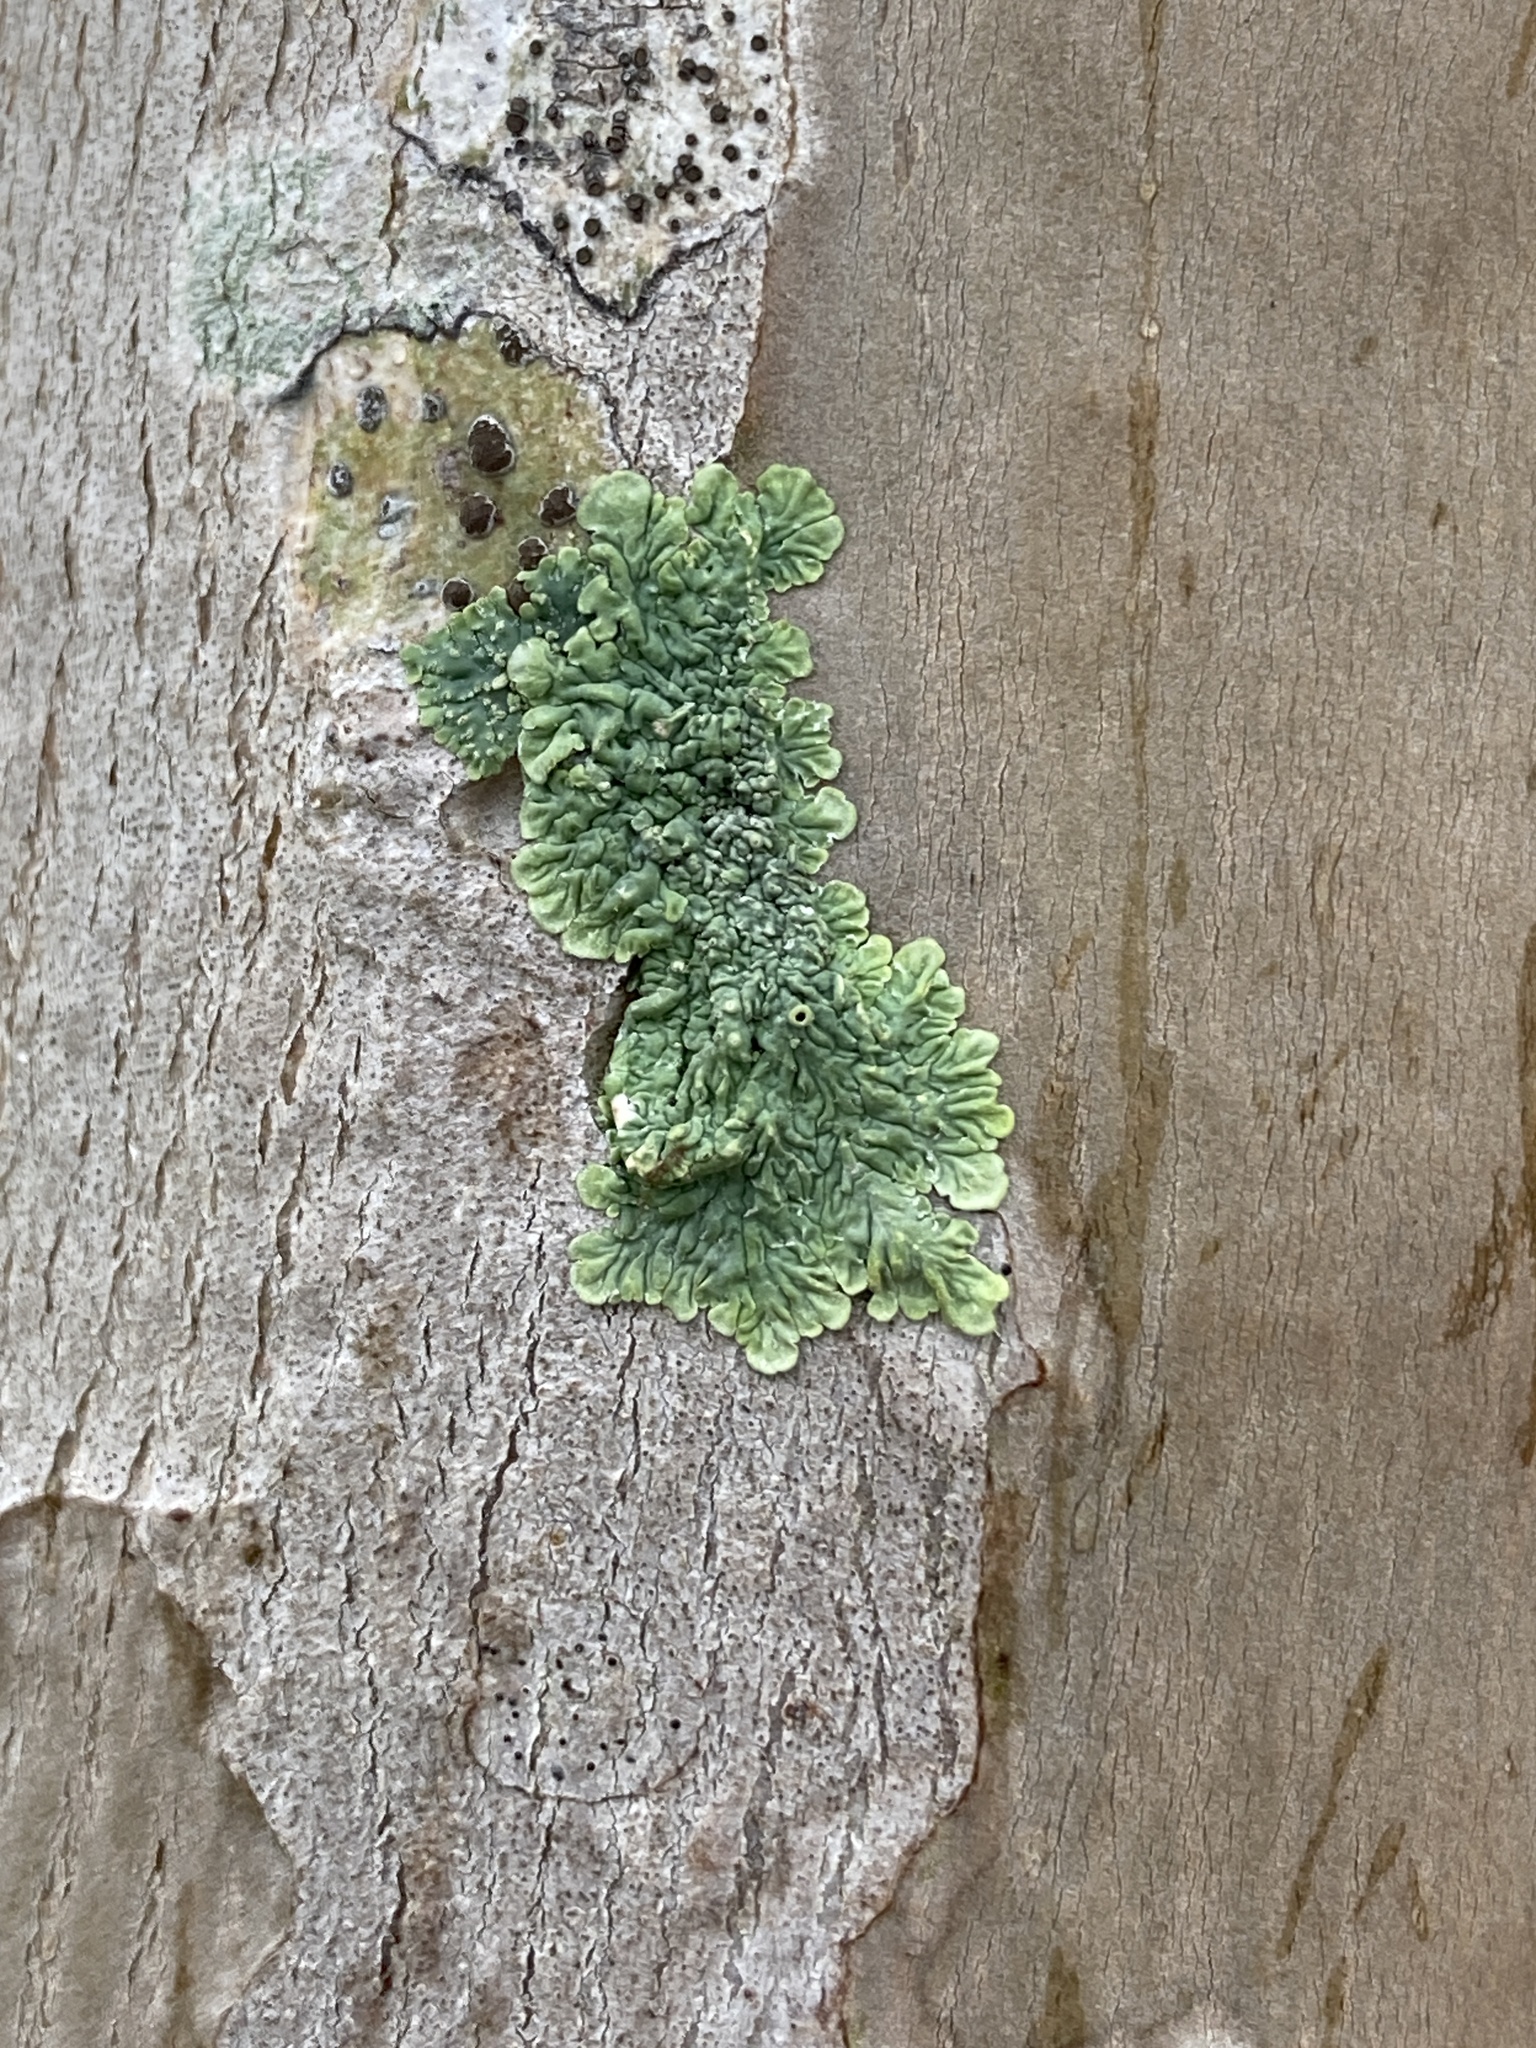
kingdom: Fungi
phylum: Ascomycota
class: Lecanoromycetes
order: Ostropales
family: Graphidaceae
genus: Glyphis
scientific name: Glyphis cicatricosa
